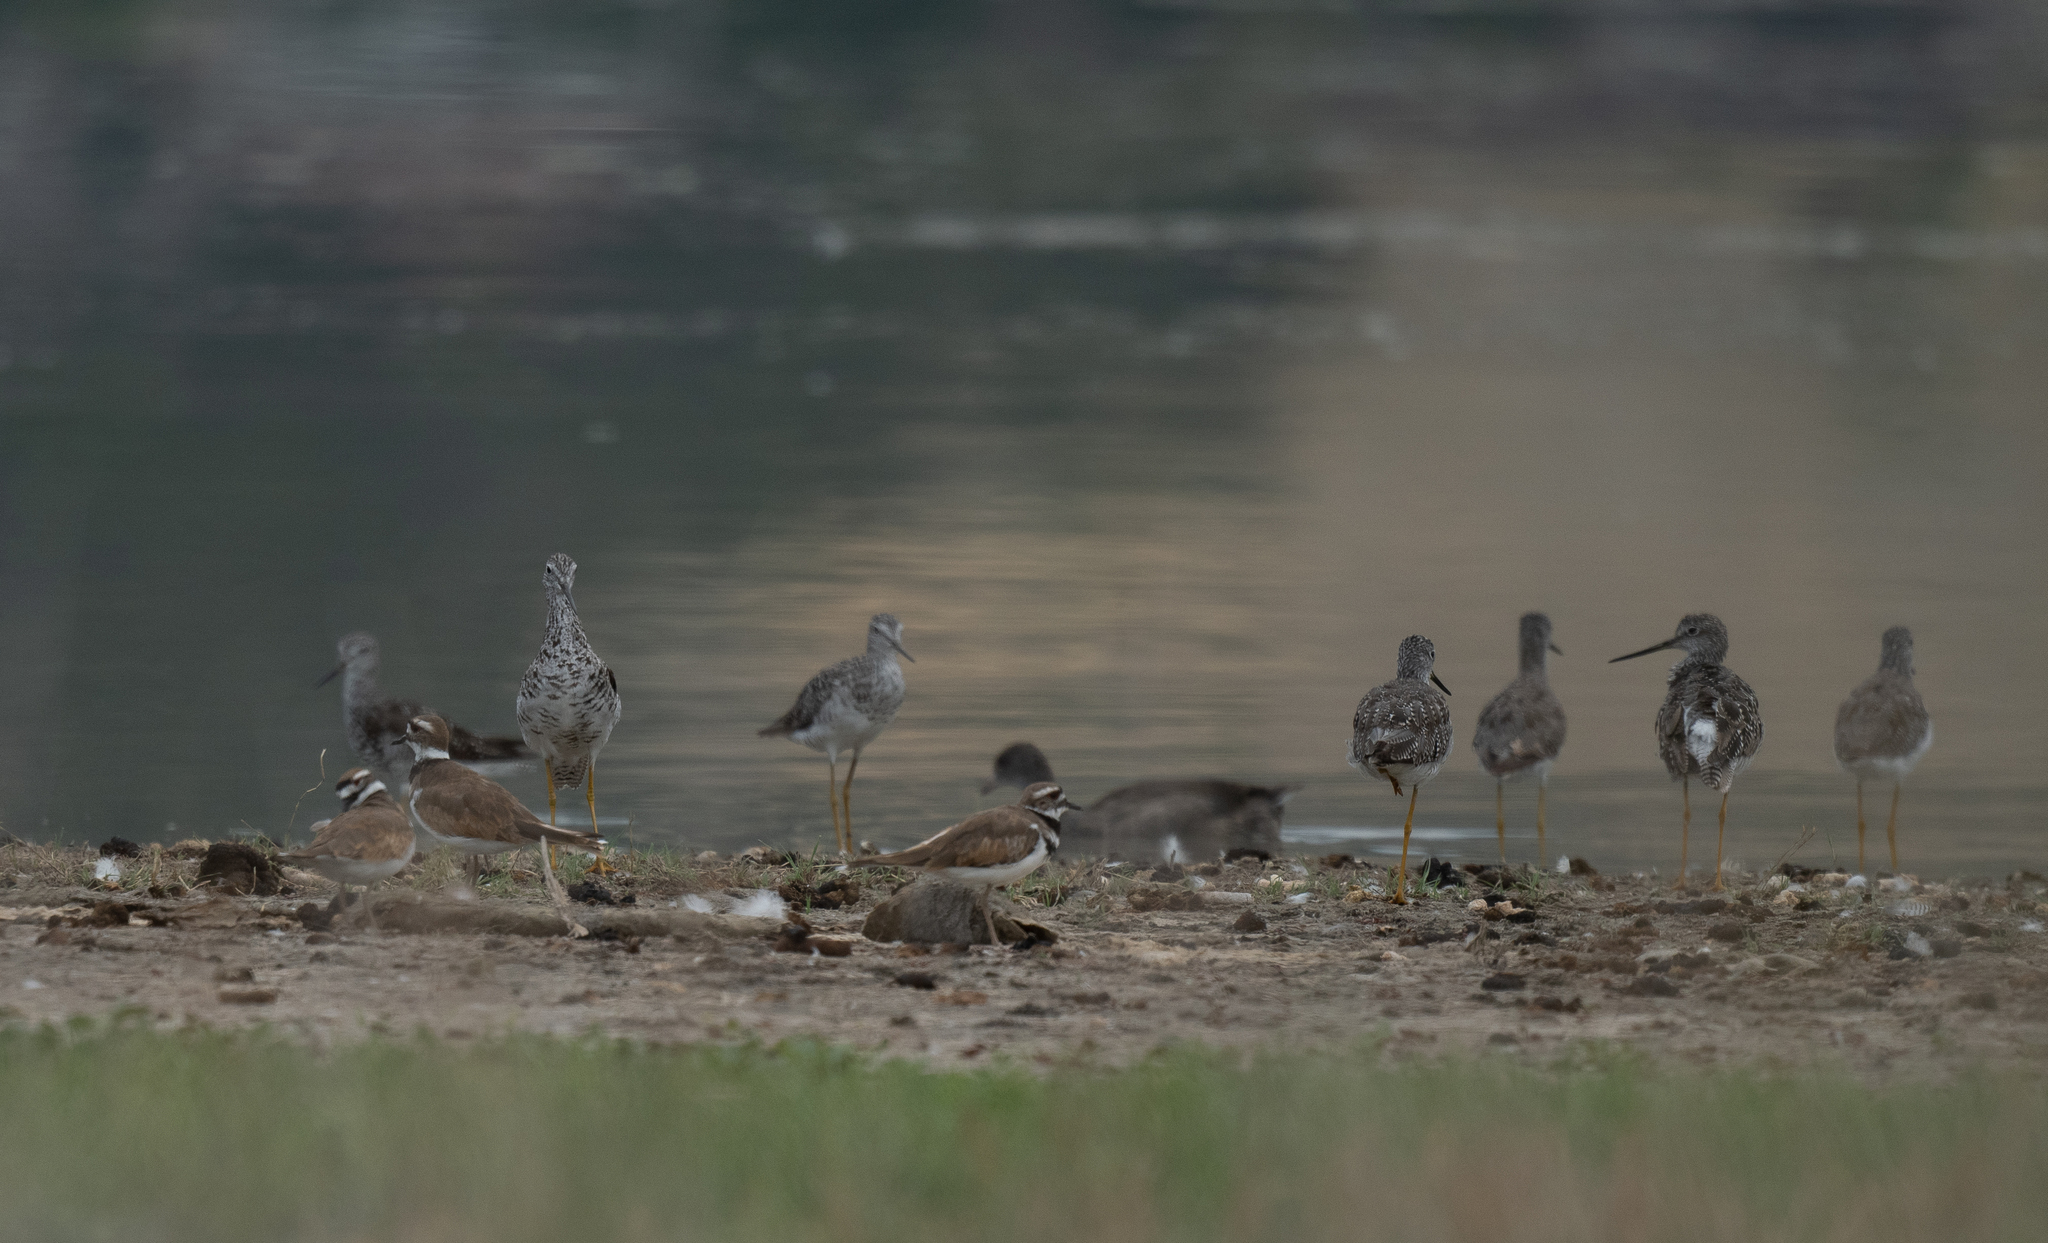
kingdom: Animalia
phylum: Chordata
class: Aves
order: Charadriiformes
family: Scolopacidae
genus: Tringa
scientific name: Tringa melanoleuca
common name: Greater yellowlegs
